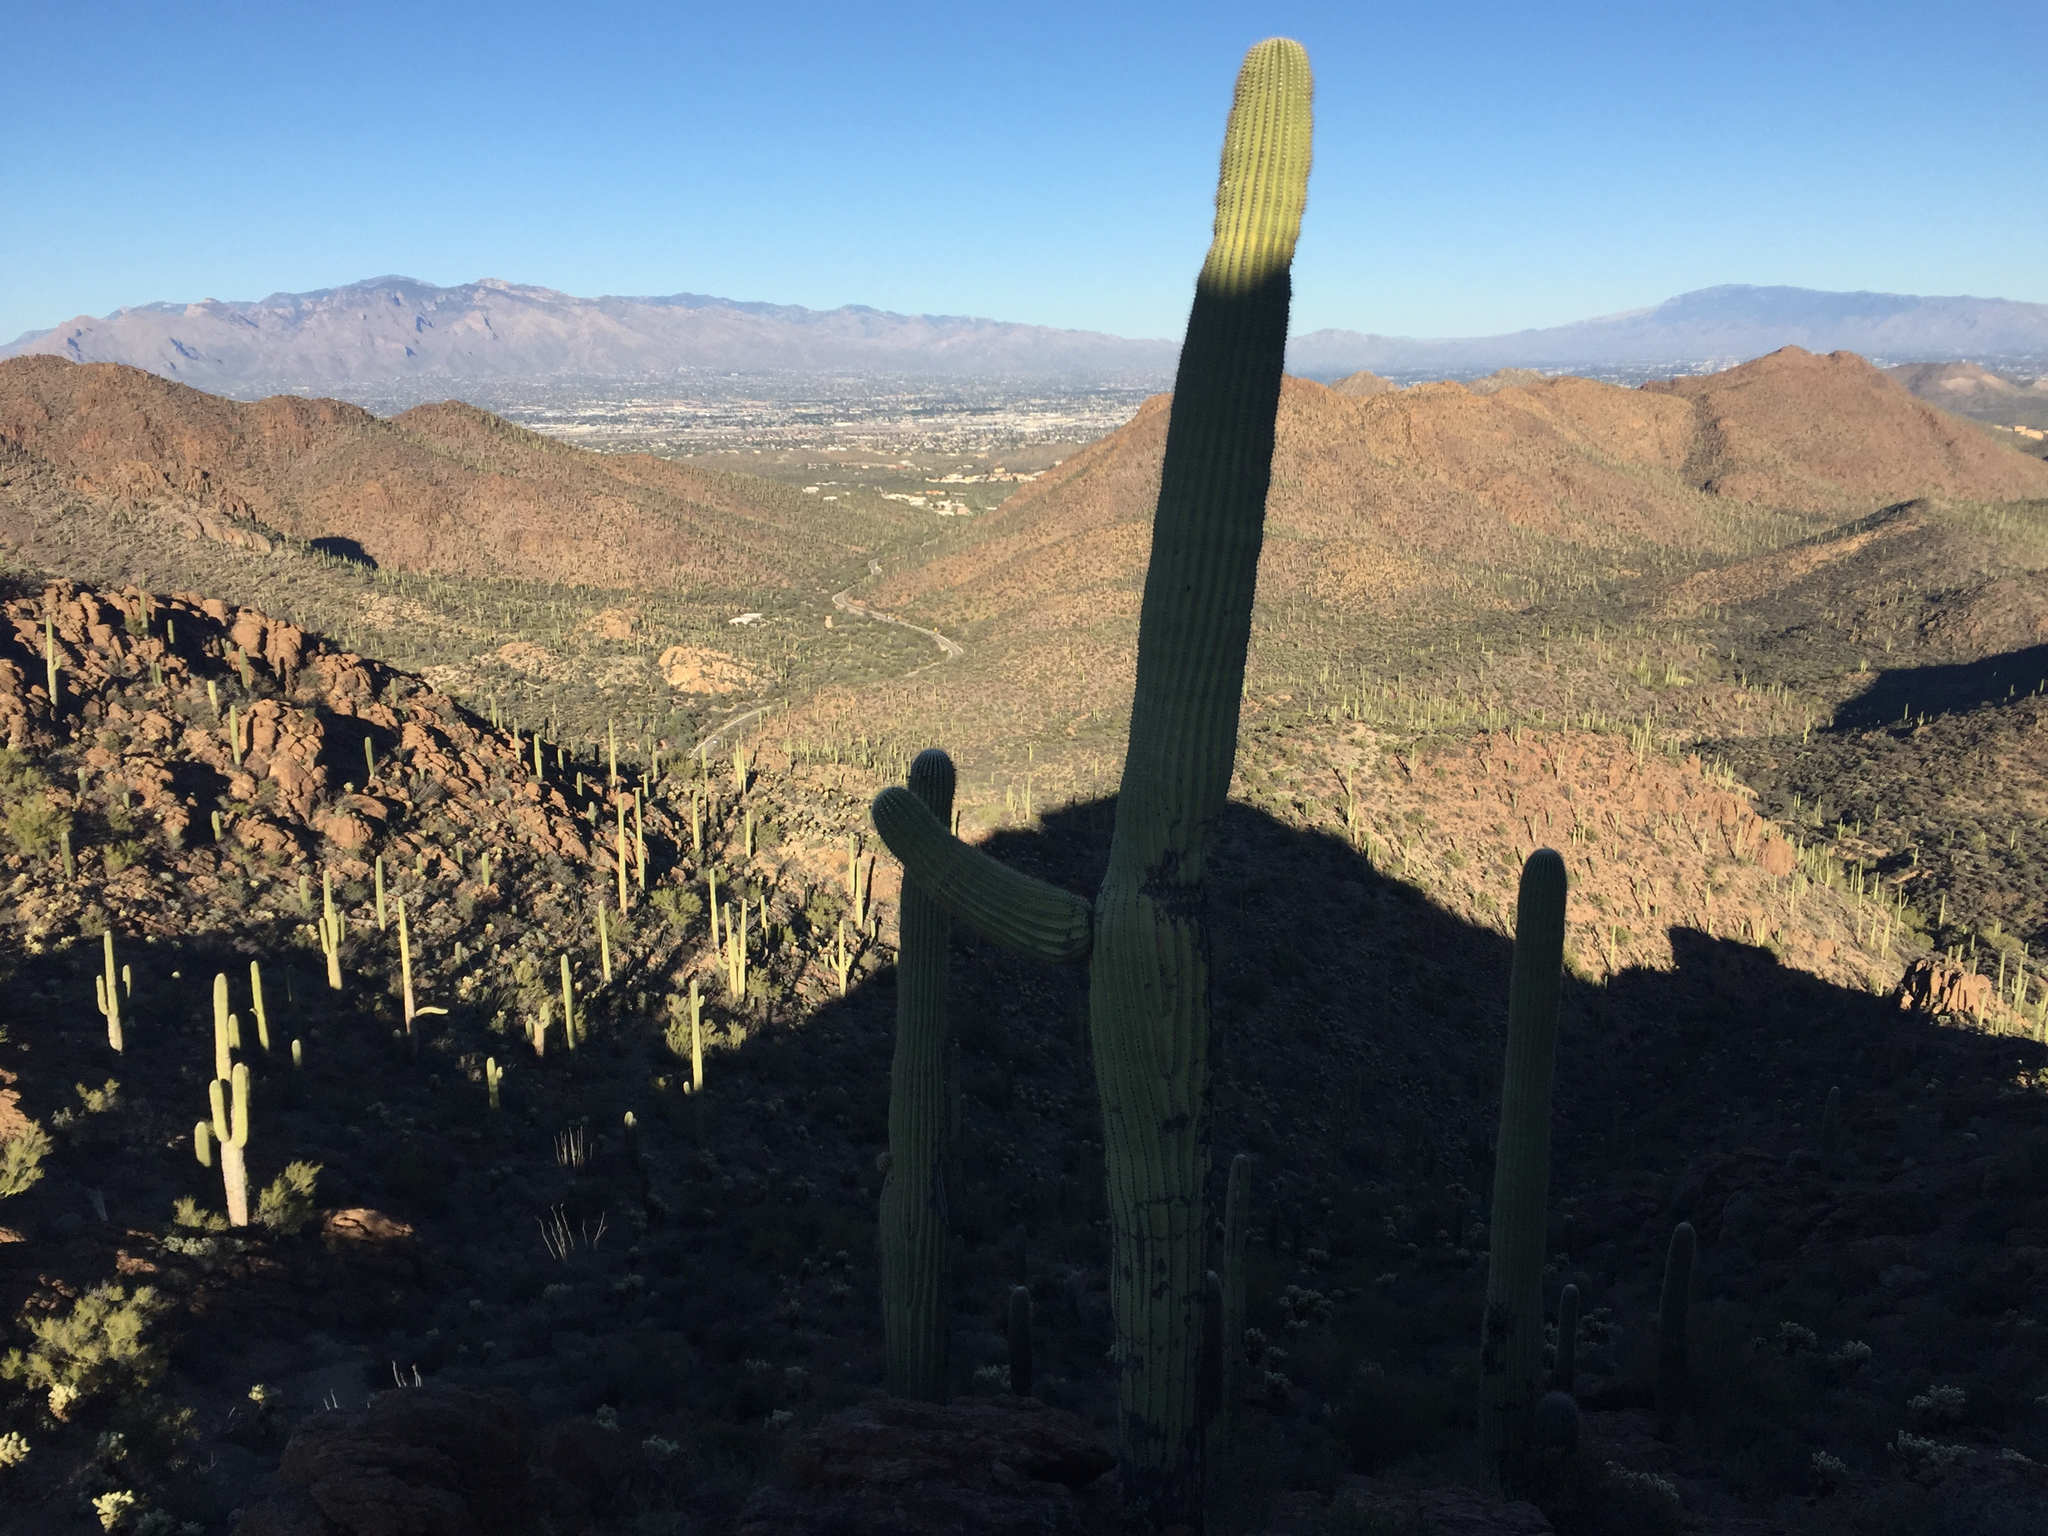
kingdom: Plantae
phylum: Tracheophyta
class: Magnoliopsida
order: Caryophyllales
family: Cactaceae
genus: Carnegiea
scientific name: Carnegiea gigantea
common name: Saguaro
